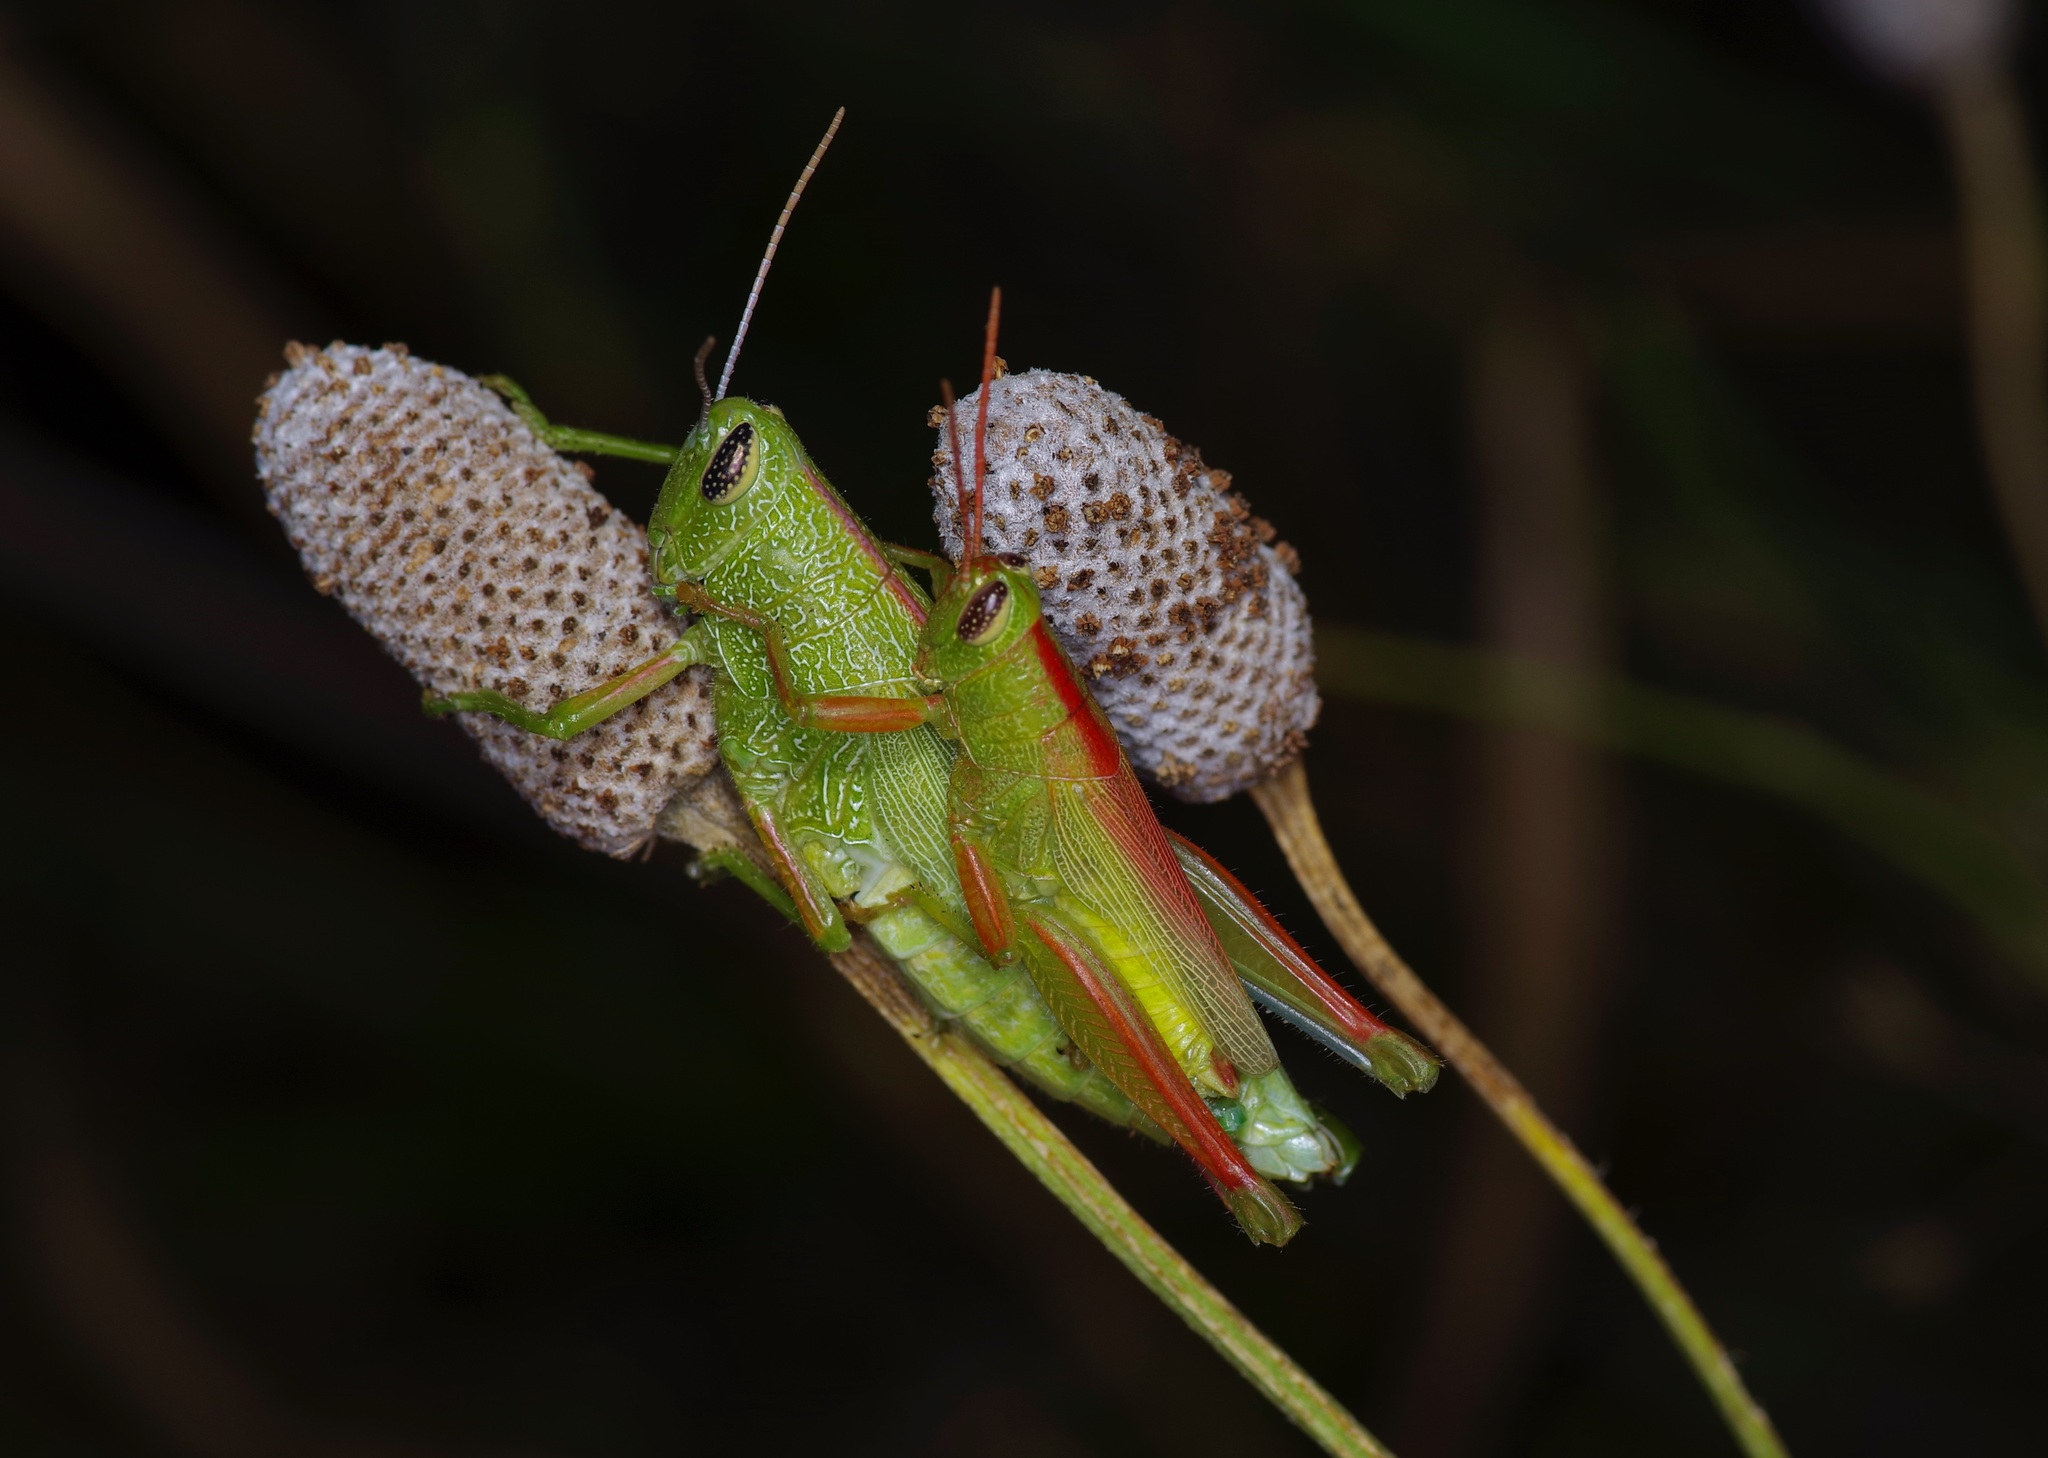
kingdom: Animalia
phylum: Arthropoda
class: Insecta
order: Orthoptera
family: Acrididae
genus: Hesperotettix
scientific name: Hesperotettix speciosus
